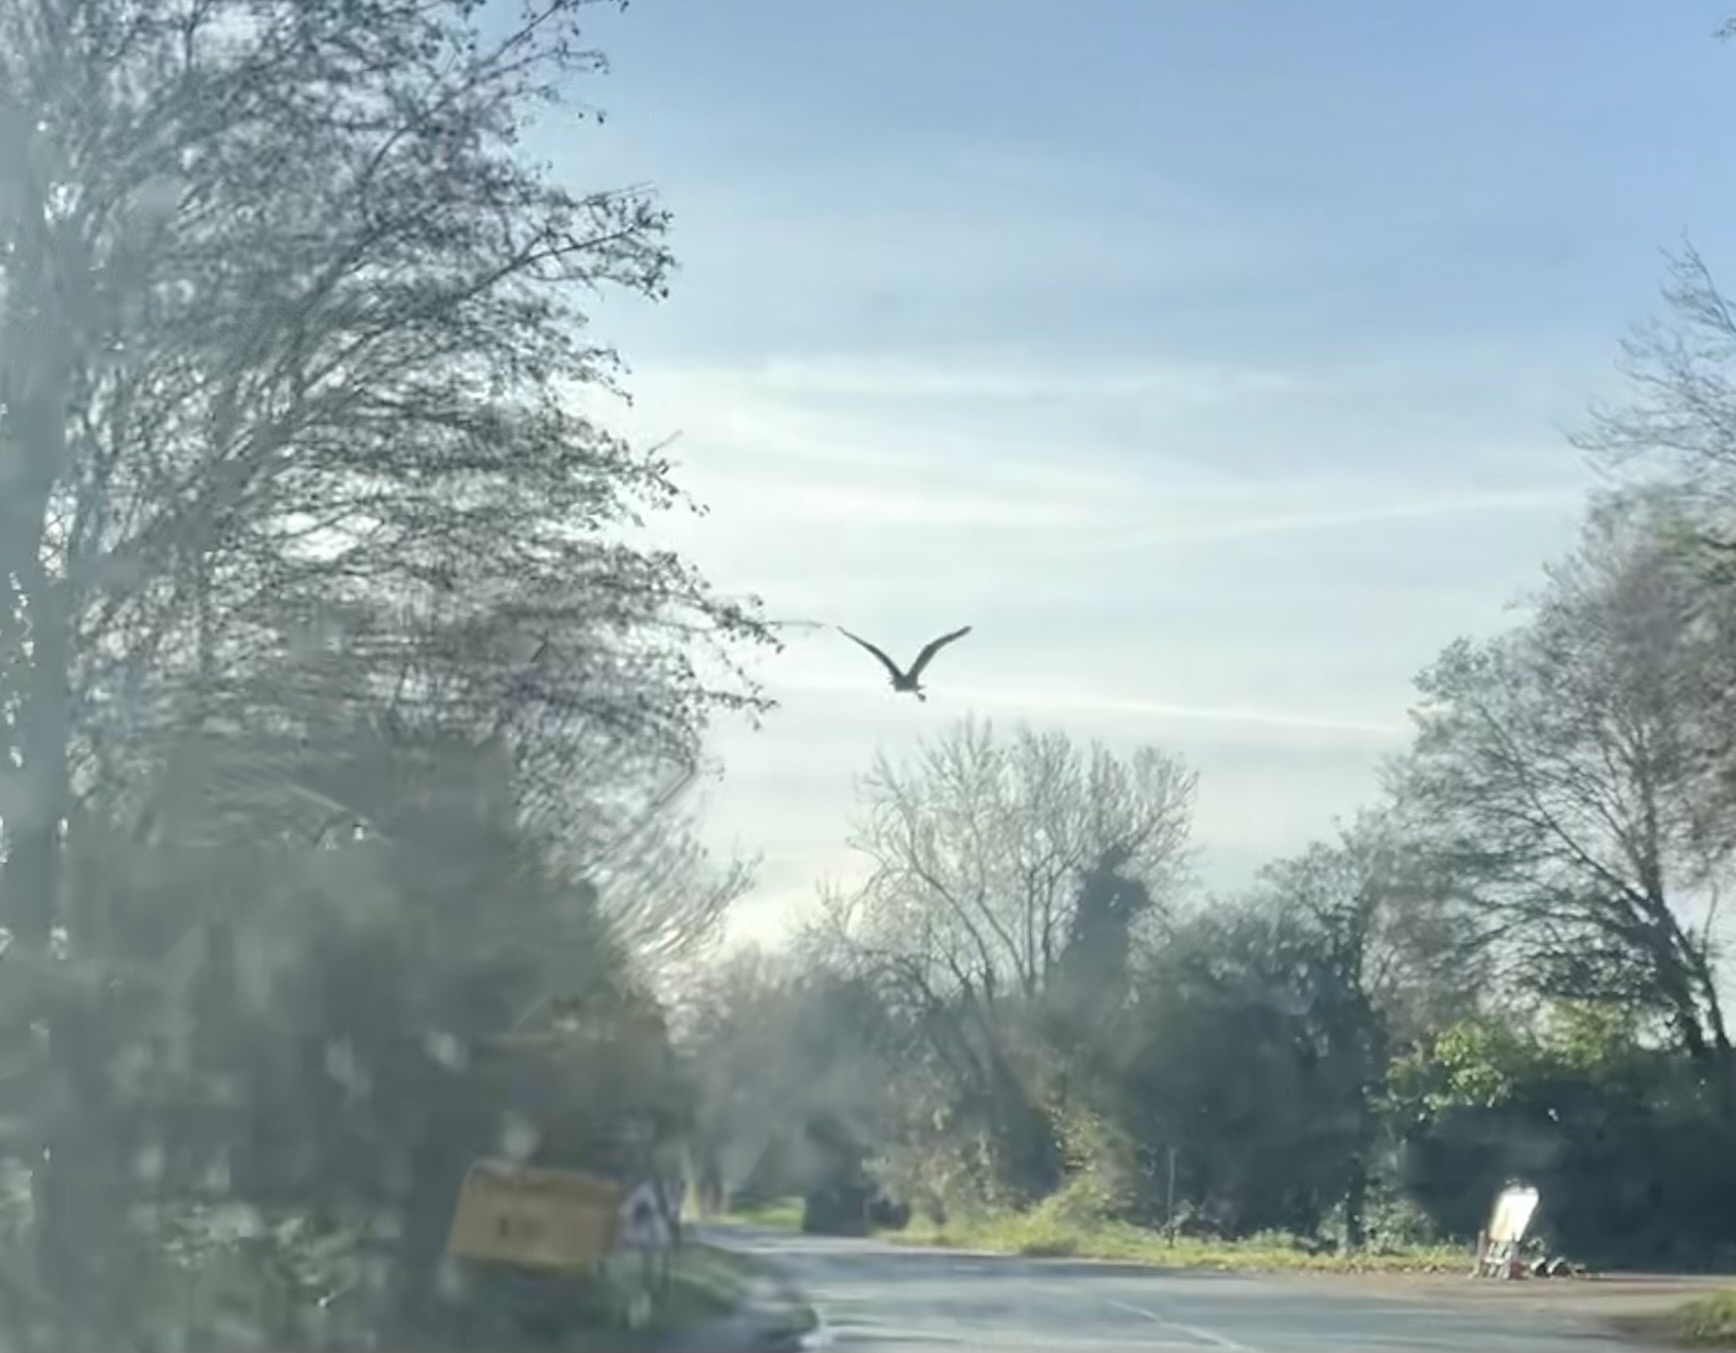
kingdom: Animalia
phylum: Chordata
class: Aves
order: Pelecaniformes
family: Ardeidae
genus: Ardea
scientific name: Ardea cinerea
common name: Grey heron
